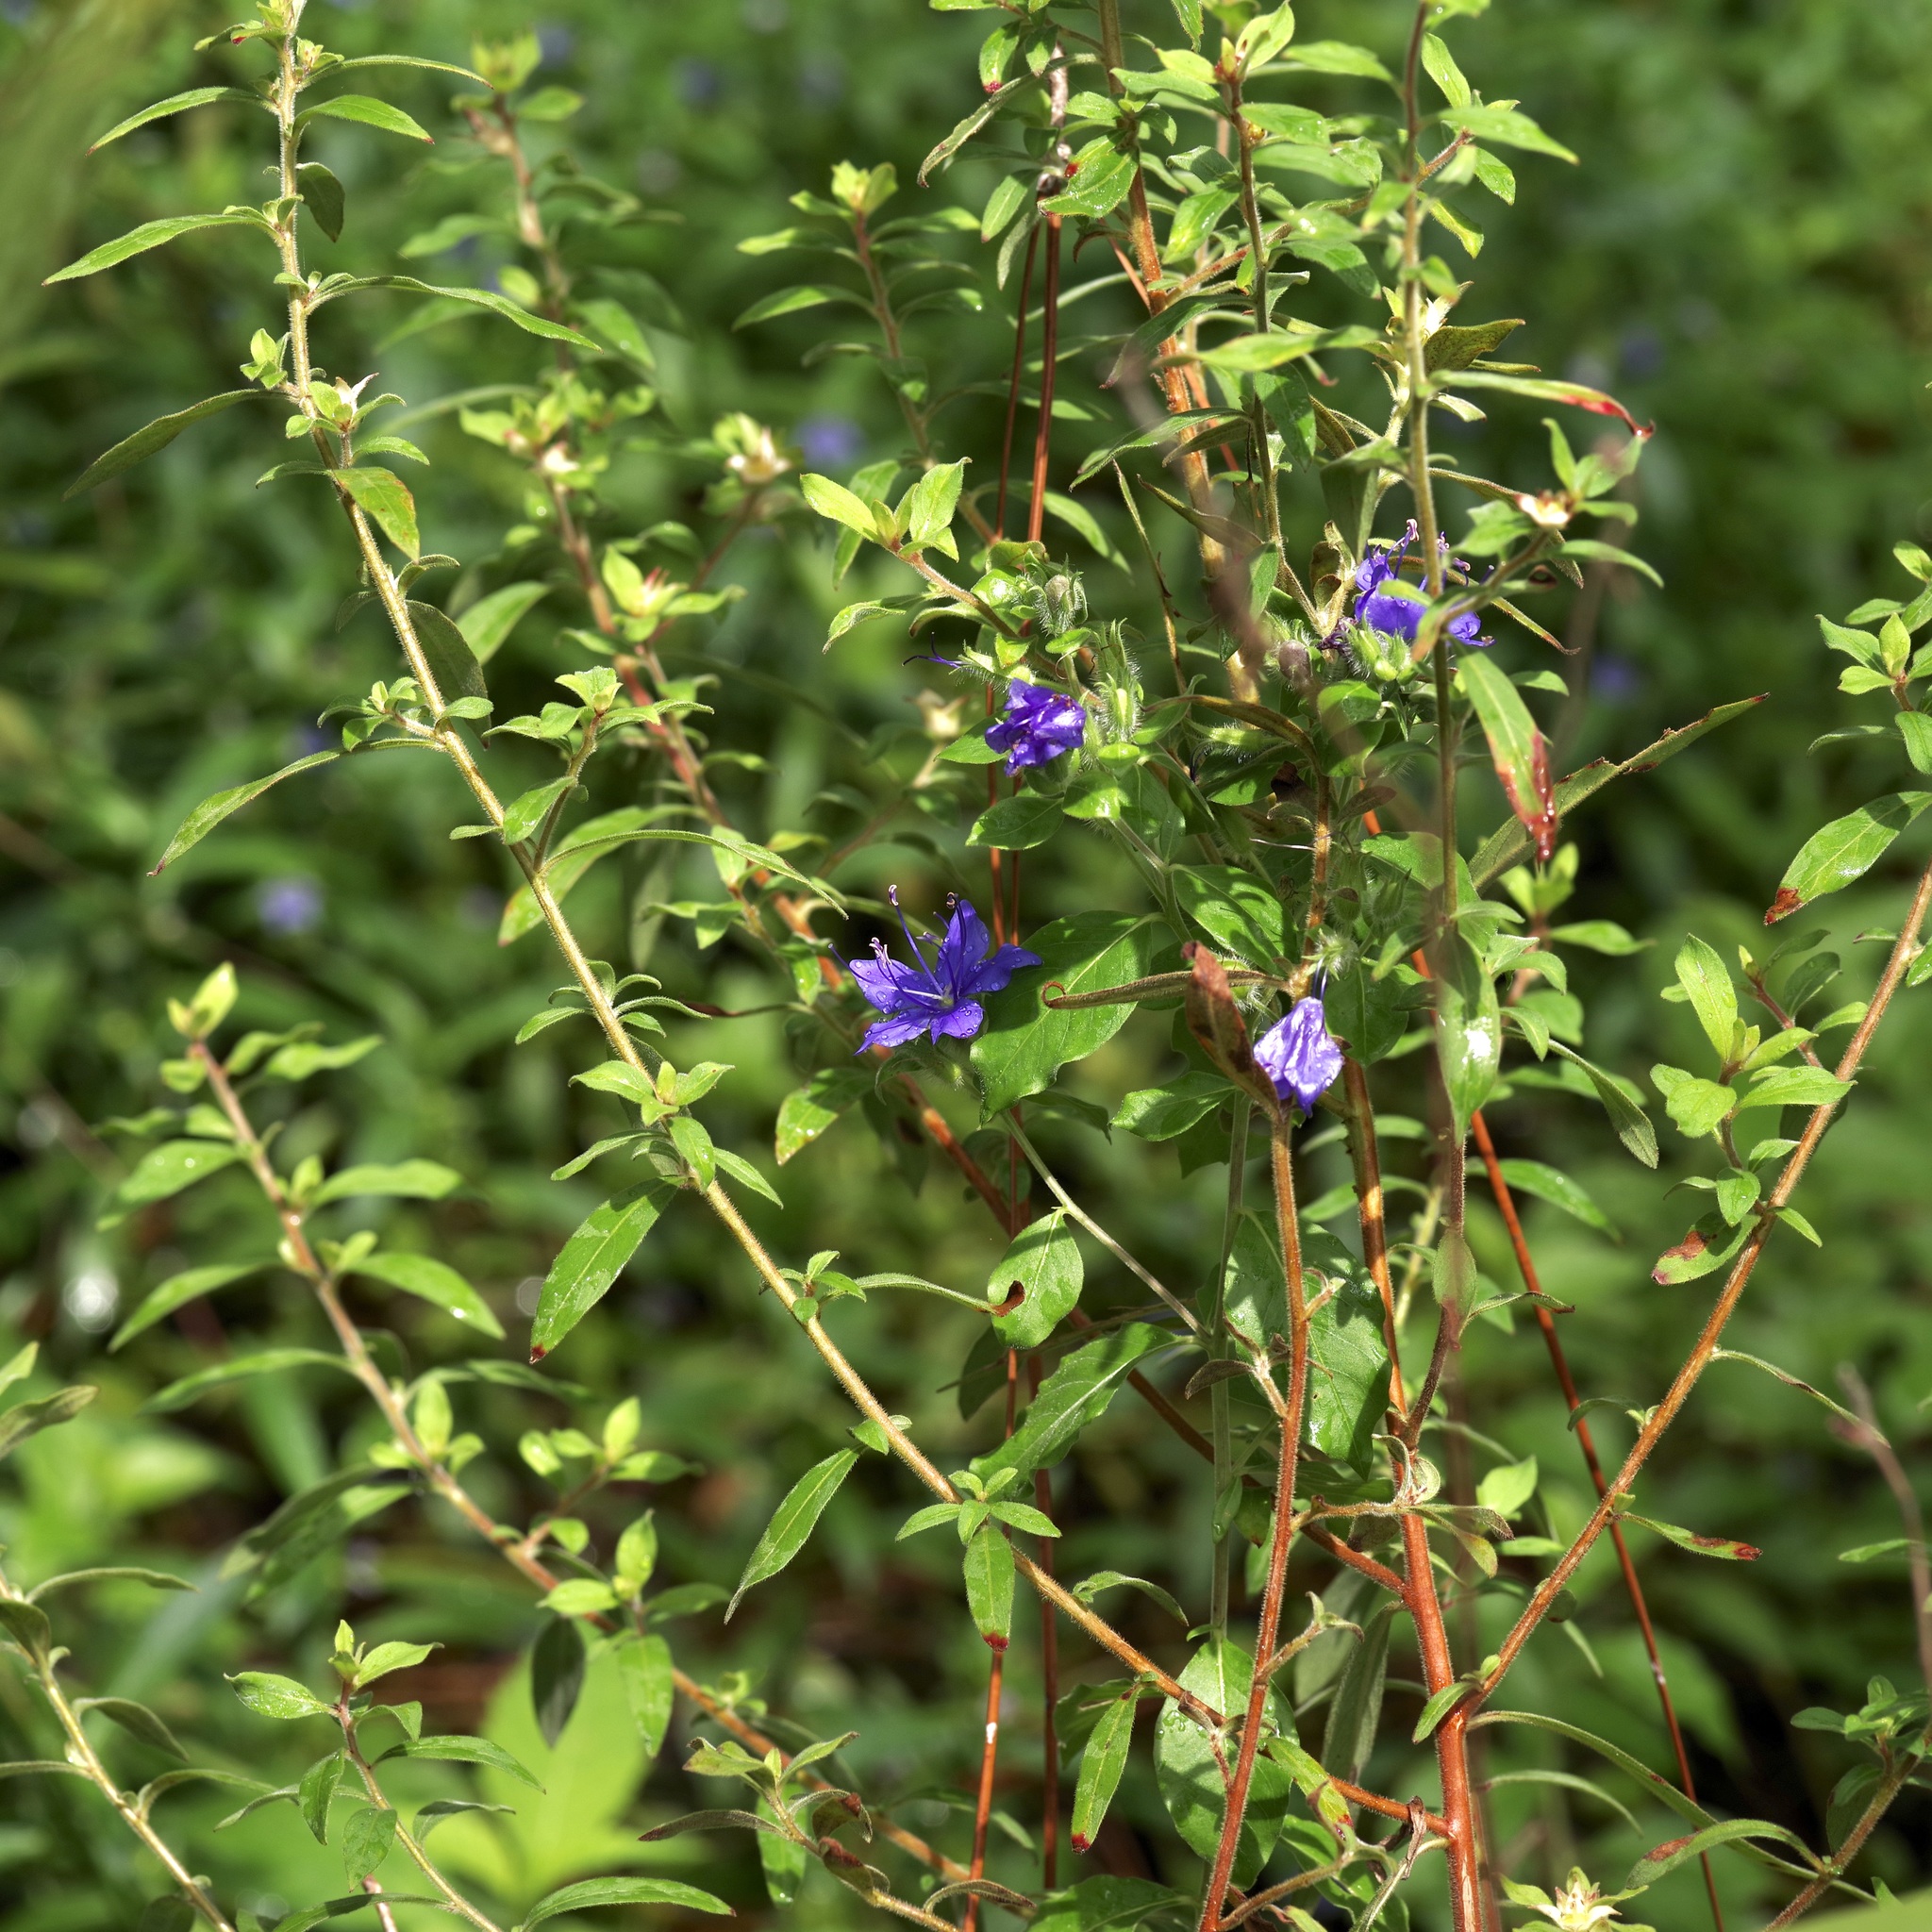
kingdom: Plantae
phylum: Tracheophyta
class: Magnoliopsida
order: Solanales
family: Hydroleaceae
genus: Hydrolea
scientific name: Hydrolea ovata
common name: Ovate false fiddleleaf
